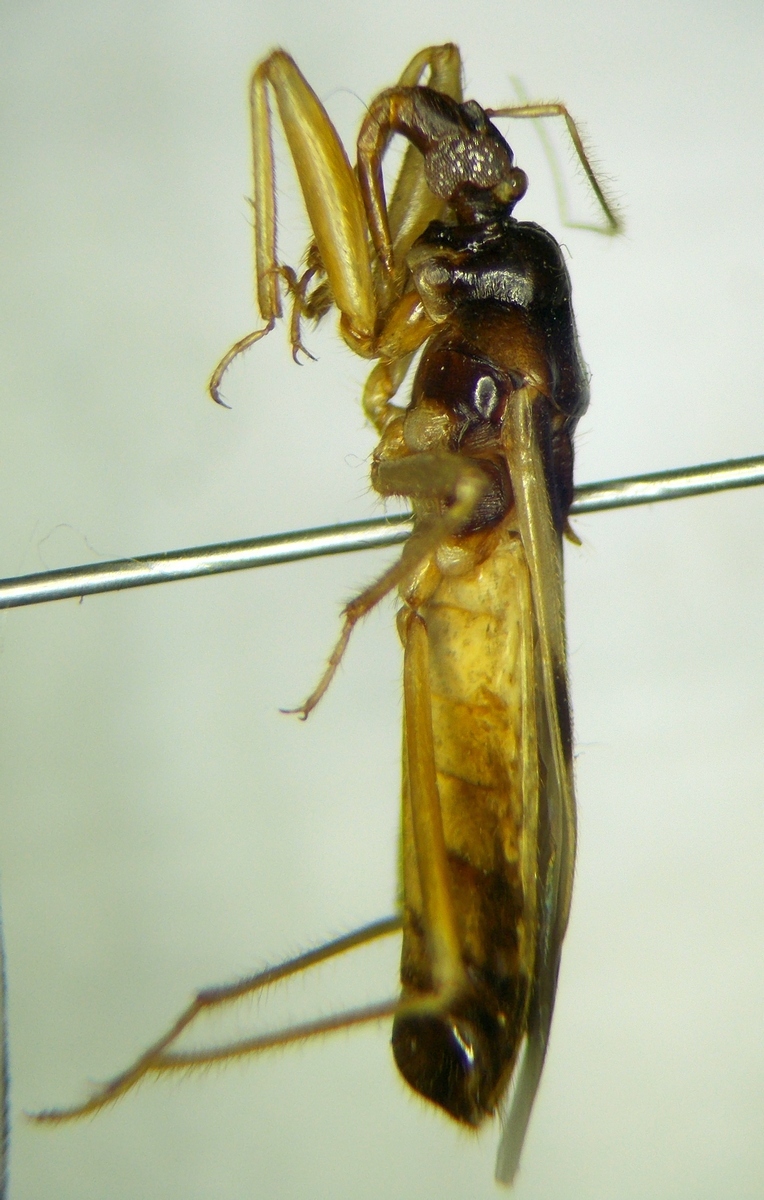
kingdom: Animalia
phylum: Arthropoda
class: Insecta
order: Hemiptera
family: Reduviidae
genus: Reduvius
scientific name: Reduvius pallipes
